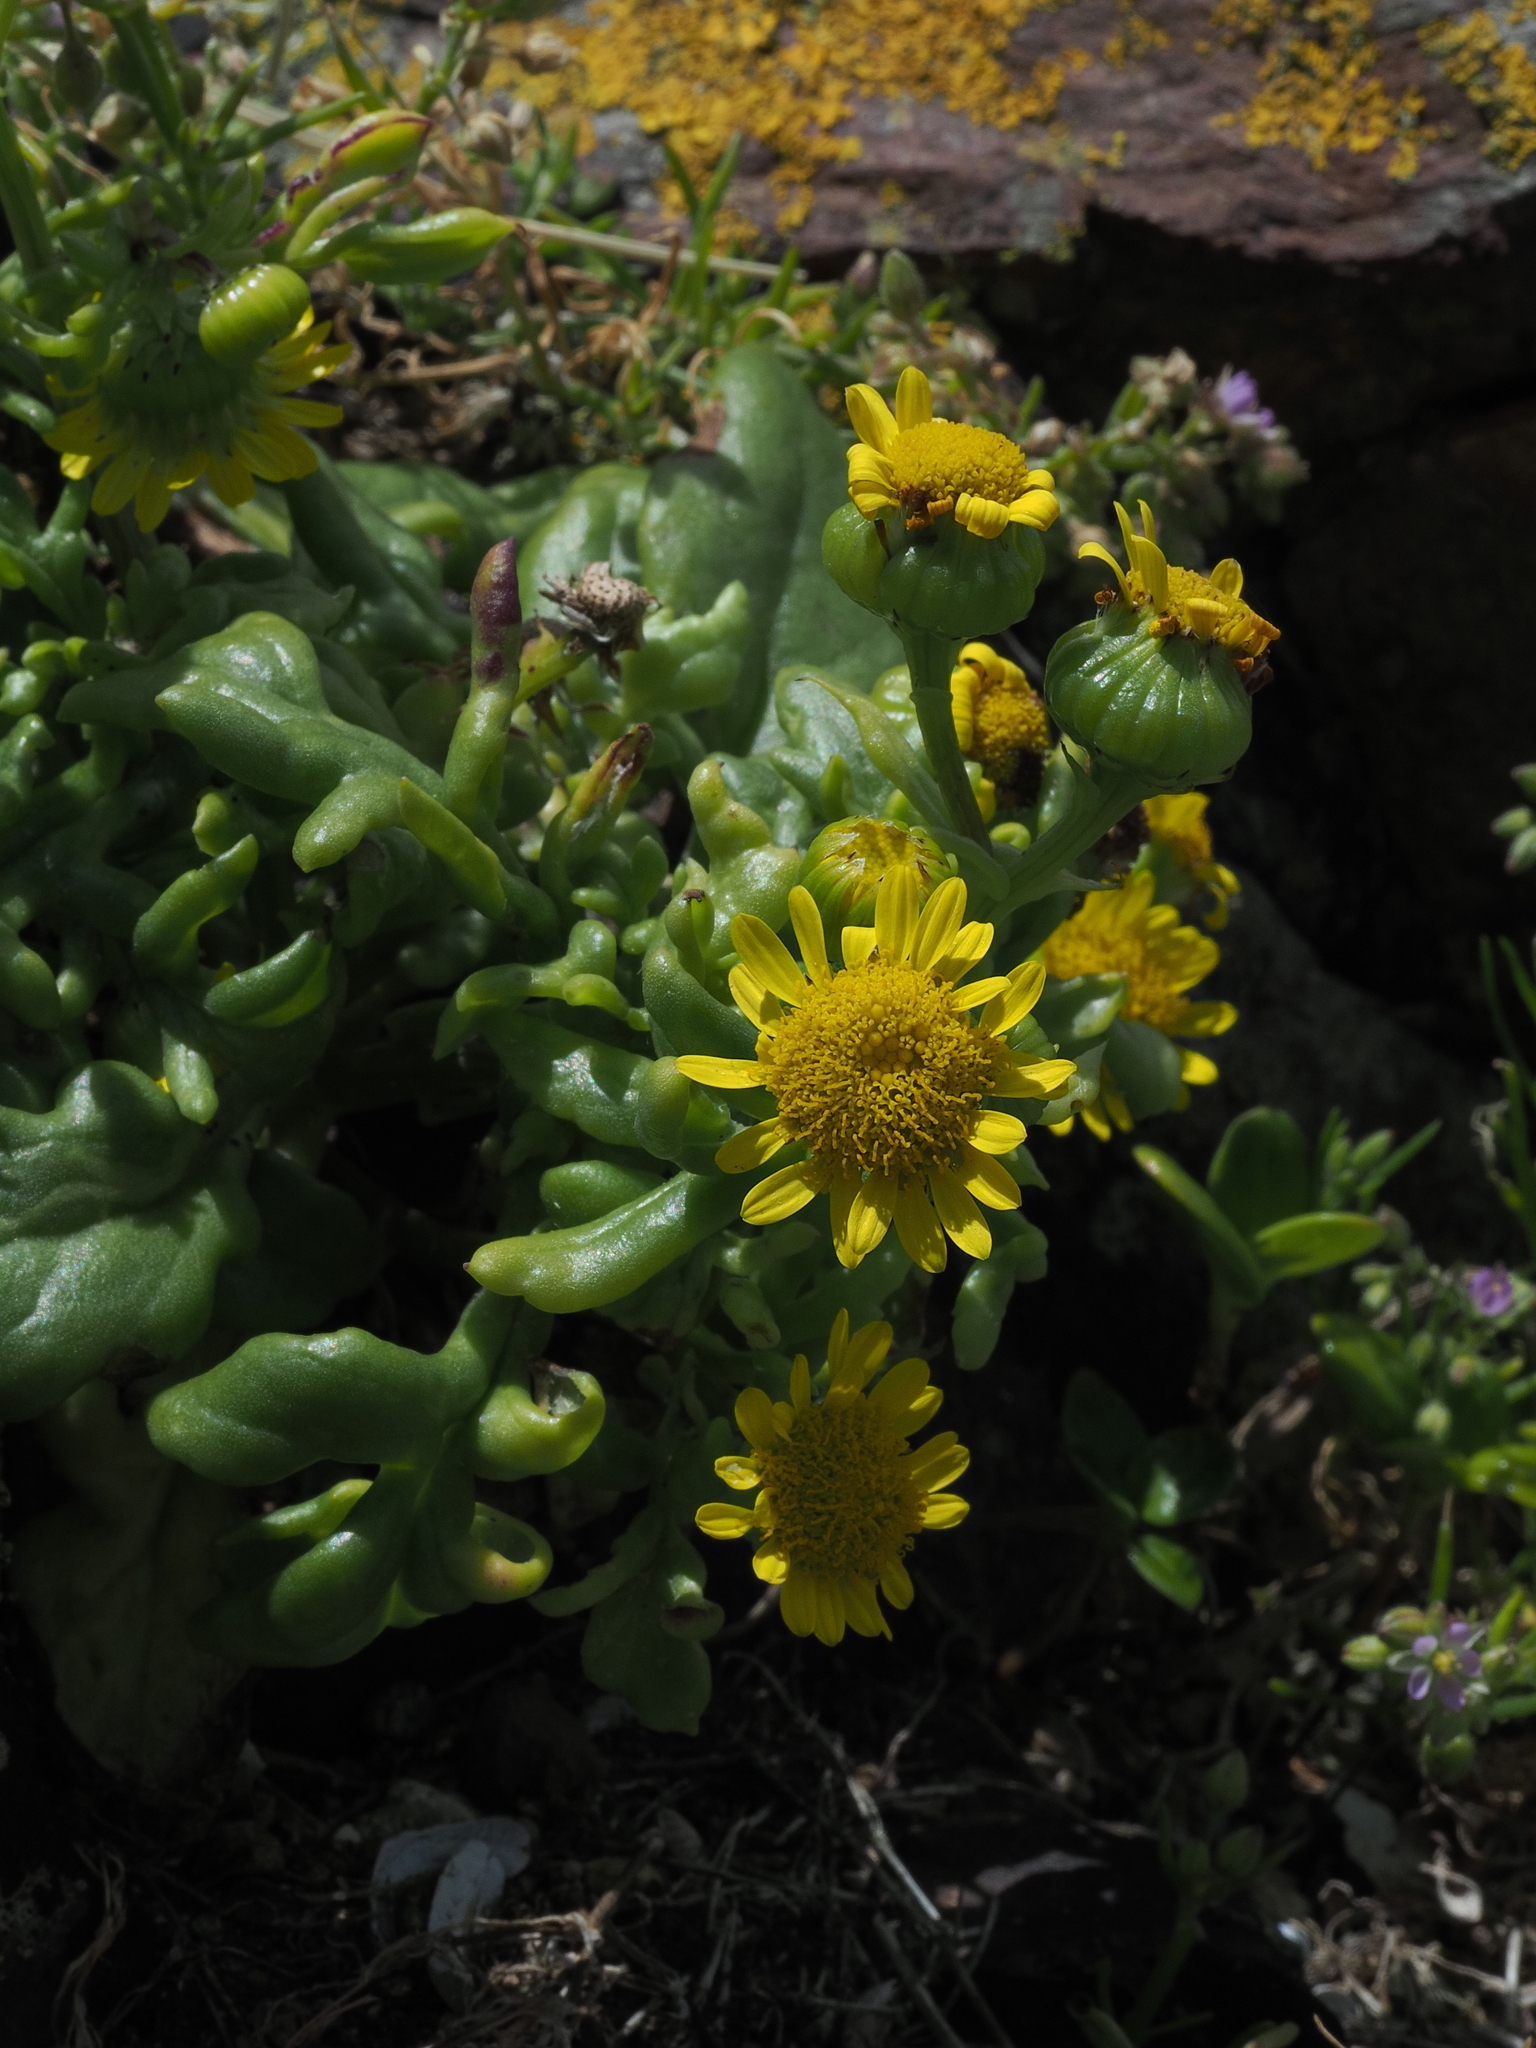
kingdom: Plantae
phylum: Tracheophyta
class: Magnoliopsida
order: Asterales
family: Asteraceae
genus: Senecio
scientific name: Senecio lautus
